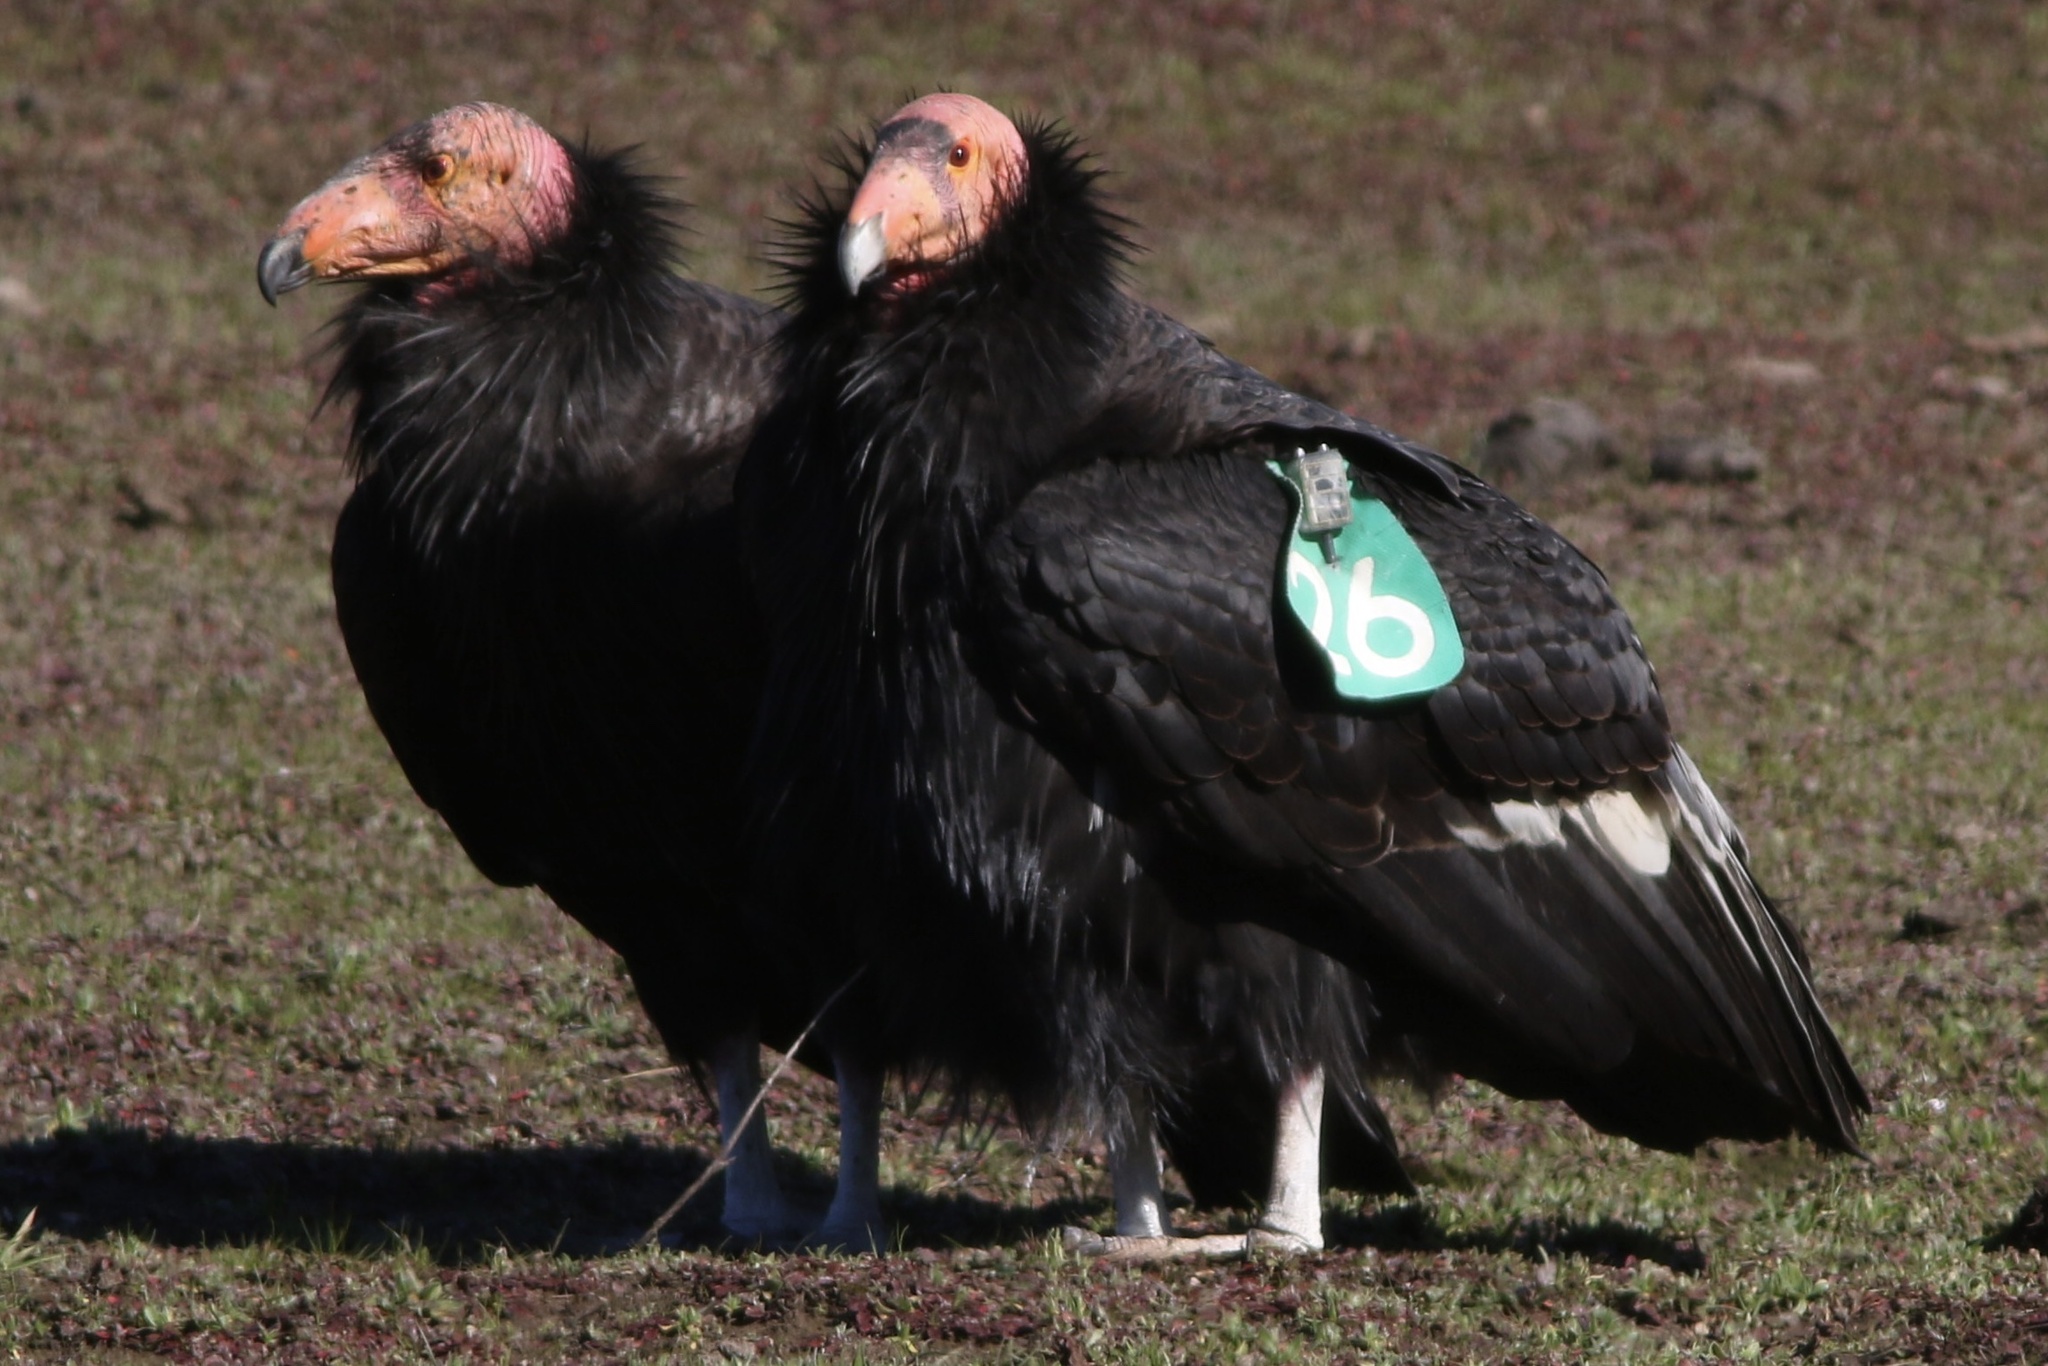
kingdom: Animalia
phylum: Chordata
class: Aves
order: Accipitriformes
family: Cathartidae
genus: Gymnogyps
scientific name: Gymnogyps californianus
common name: California condor
